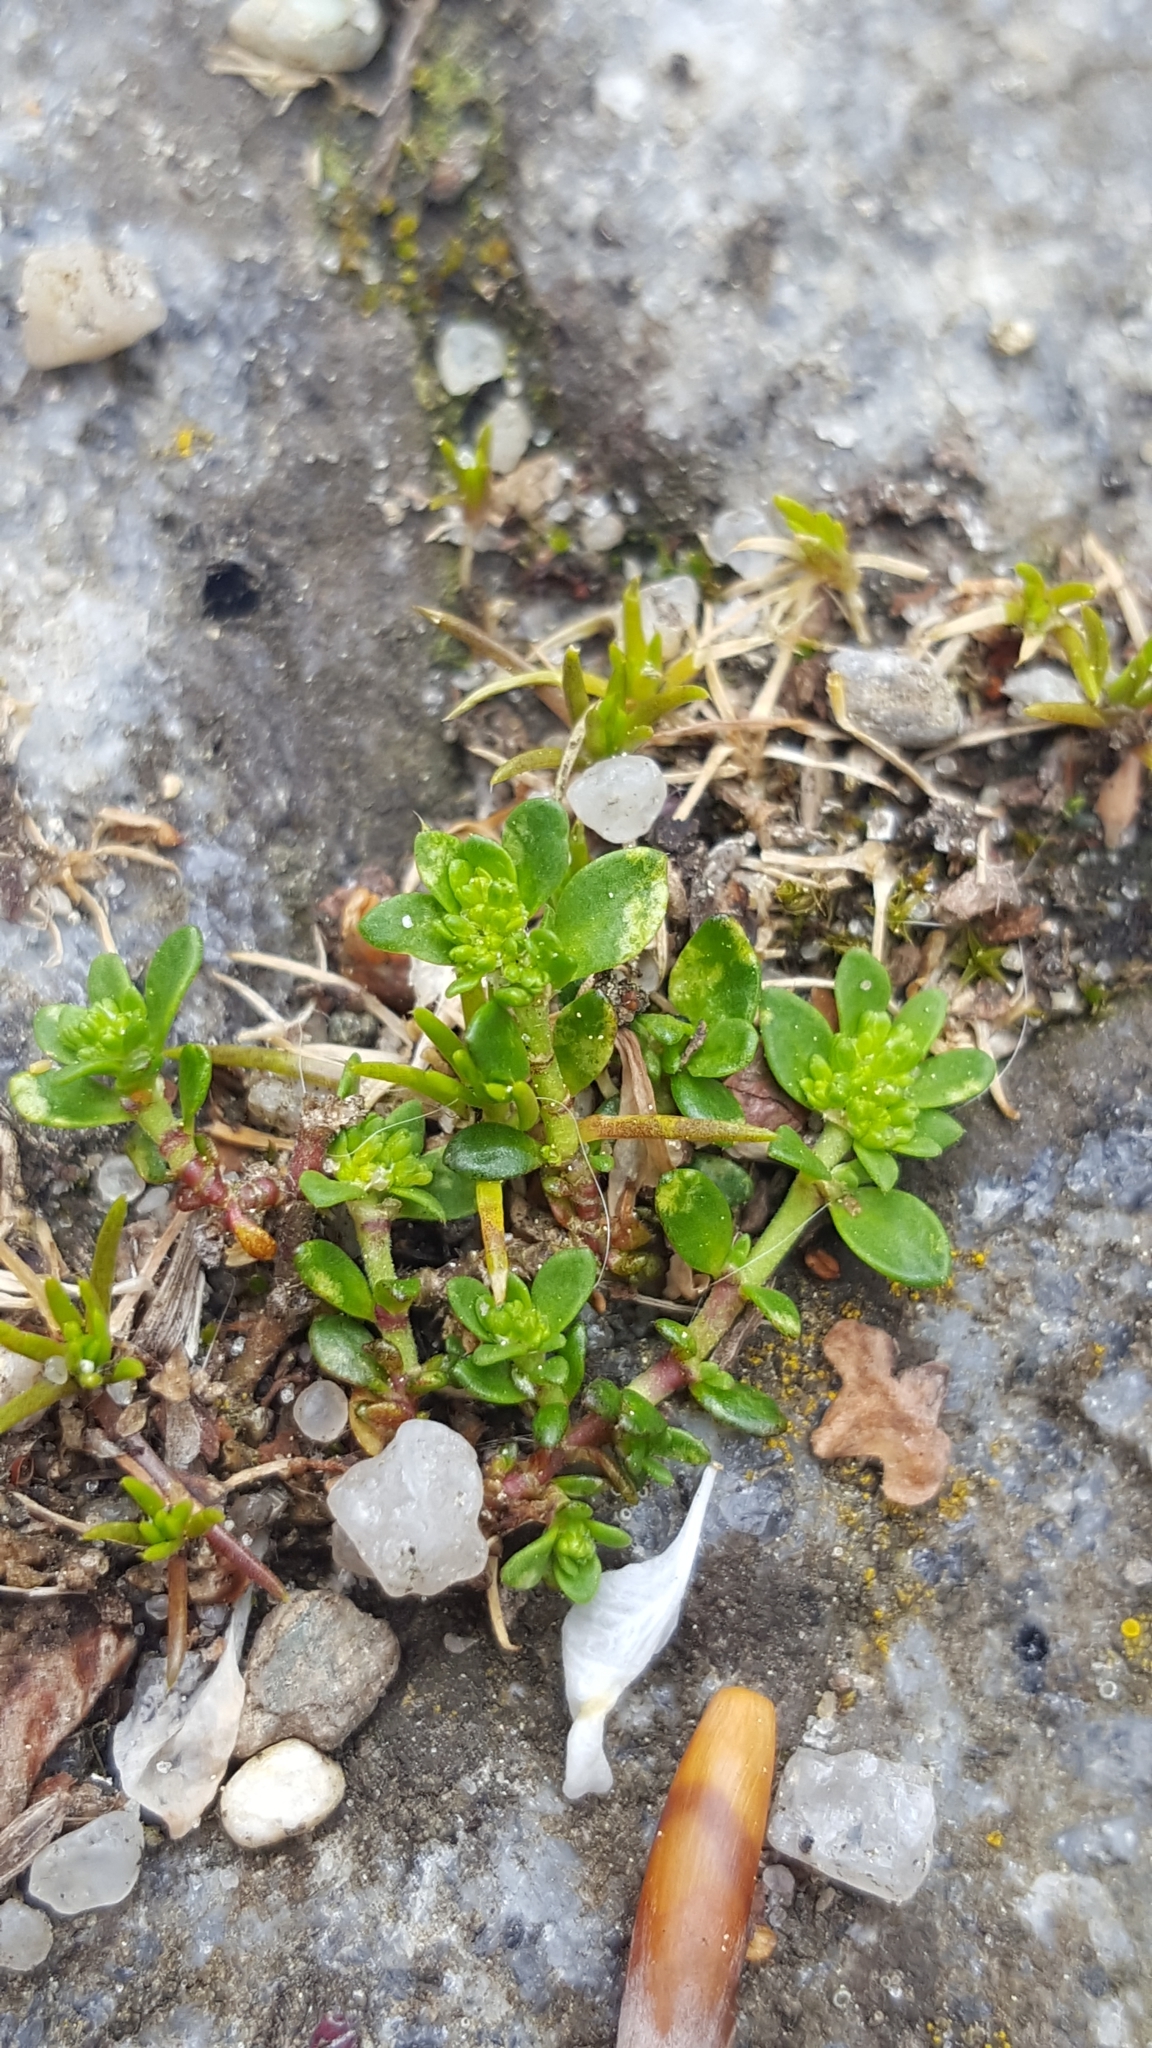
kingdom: Plantae
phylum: Tracheophyta
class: Magnoliopsida
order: Caryophyllales
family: Caryophyllaceae
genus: Herniaria
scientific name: Herniaria glabra
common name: Smooth rupturewort
